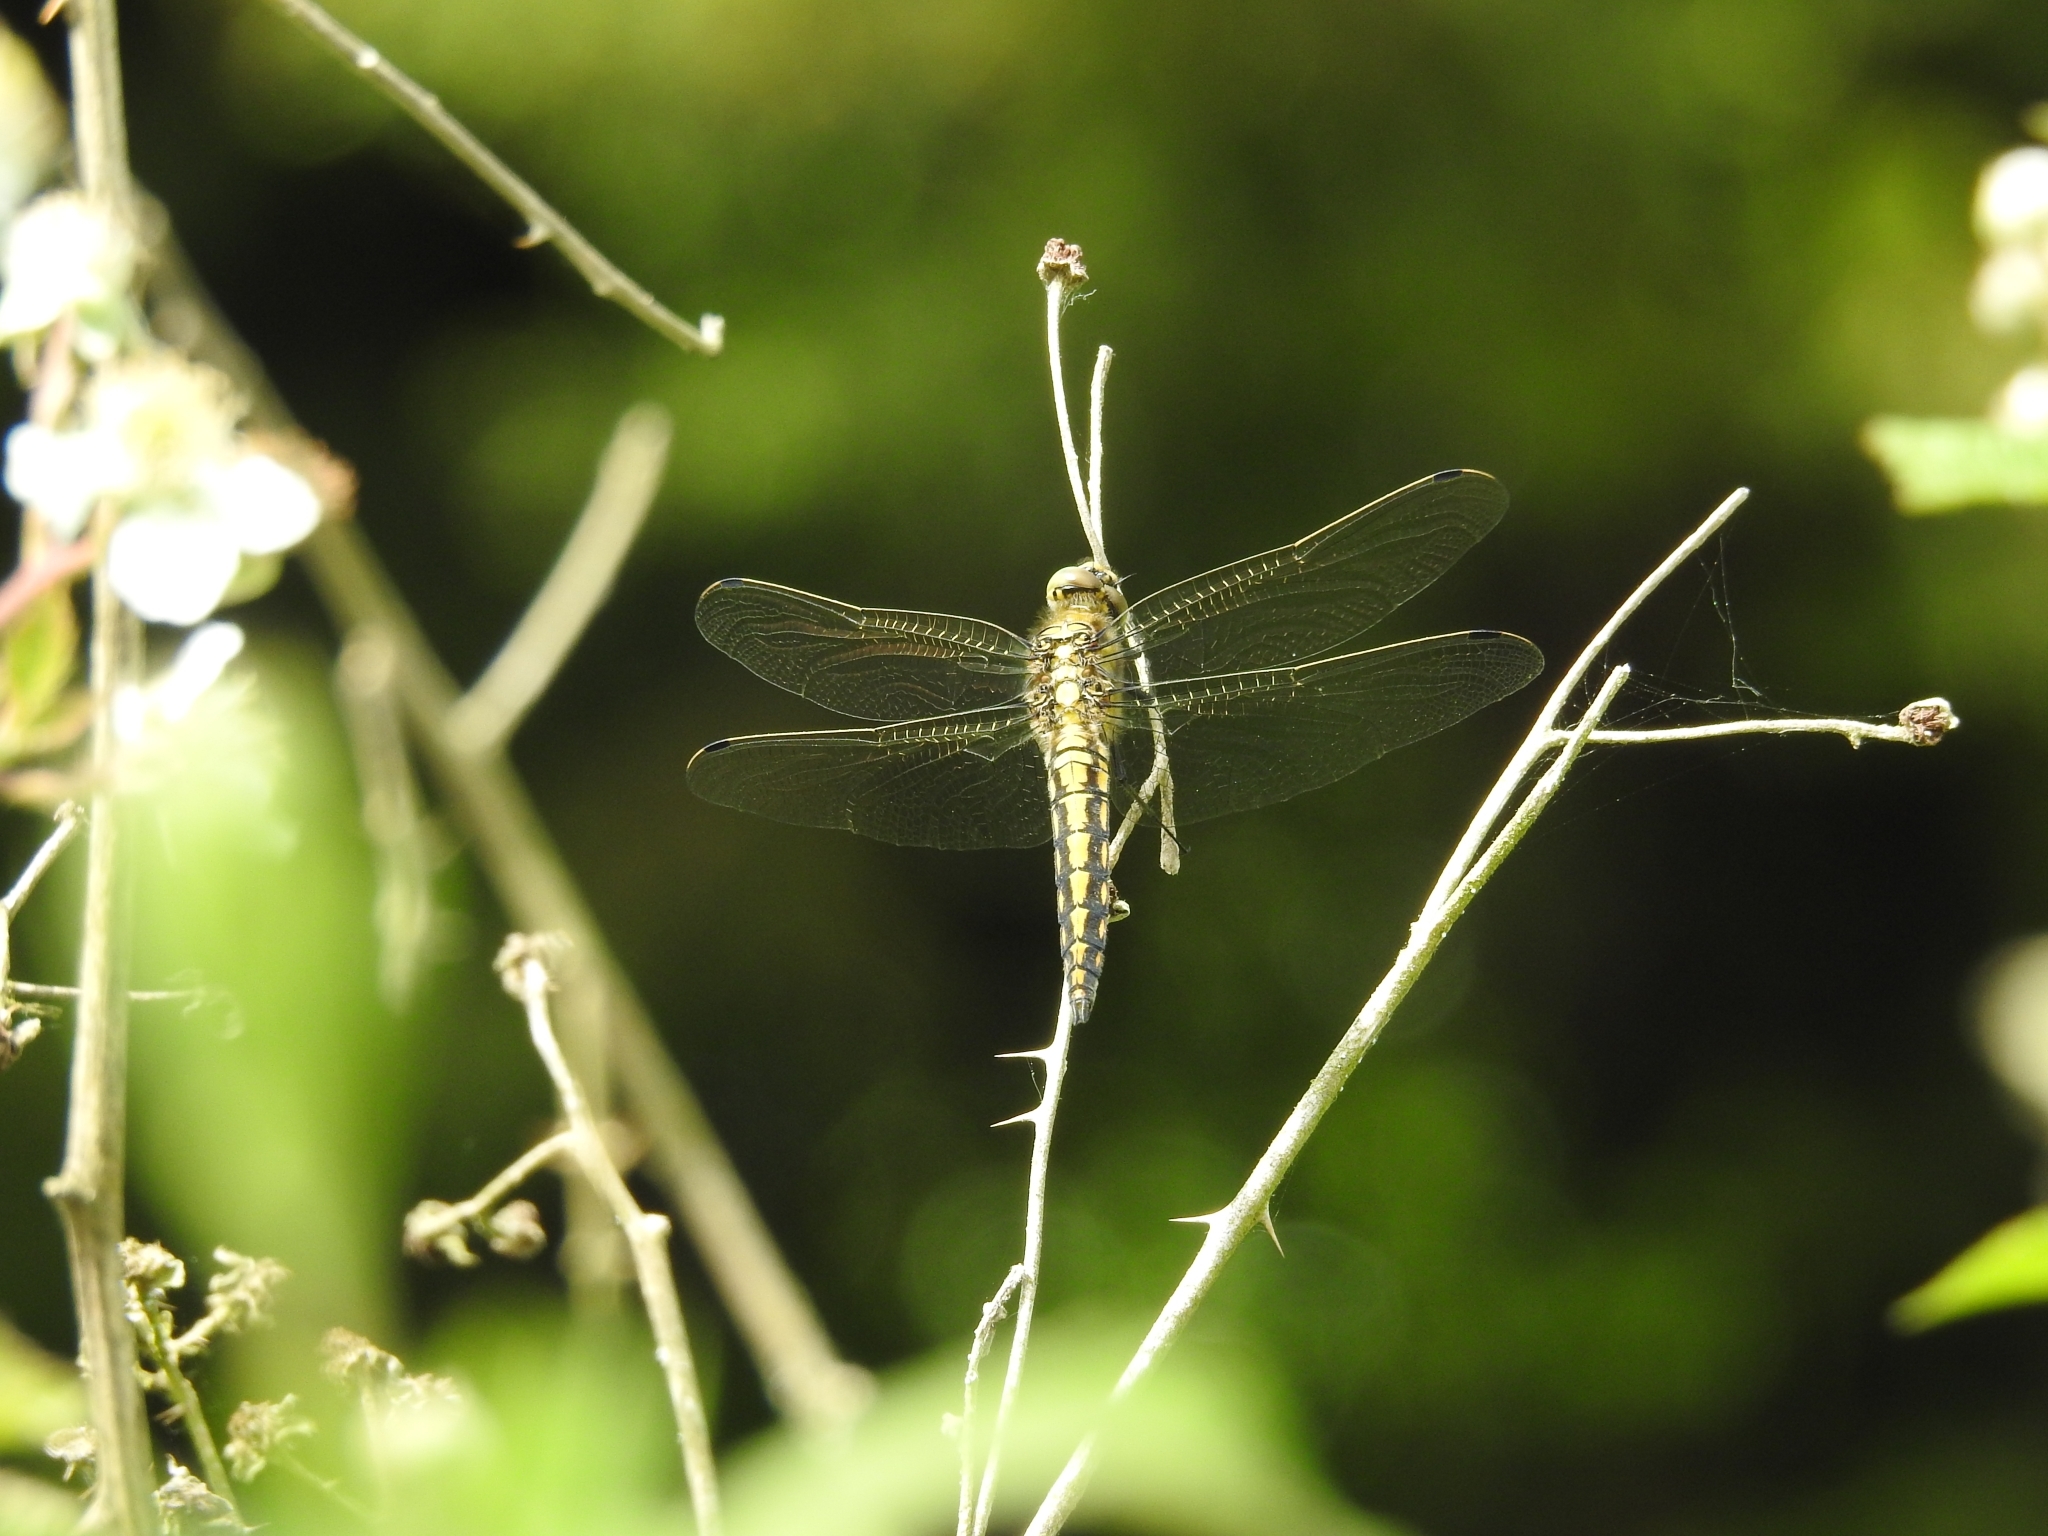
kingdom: Animalia
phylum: Arthropoda
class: Insecta
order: Odonata
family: Libellulidae
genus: Orthetrum
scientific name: Orthetrum cancellatum
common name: Black-tailed skimmer
